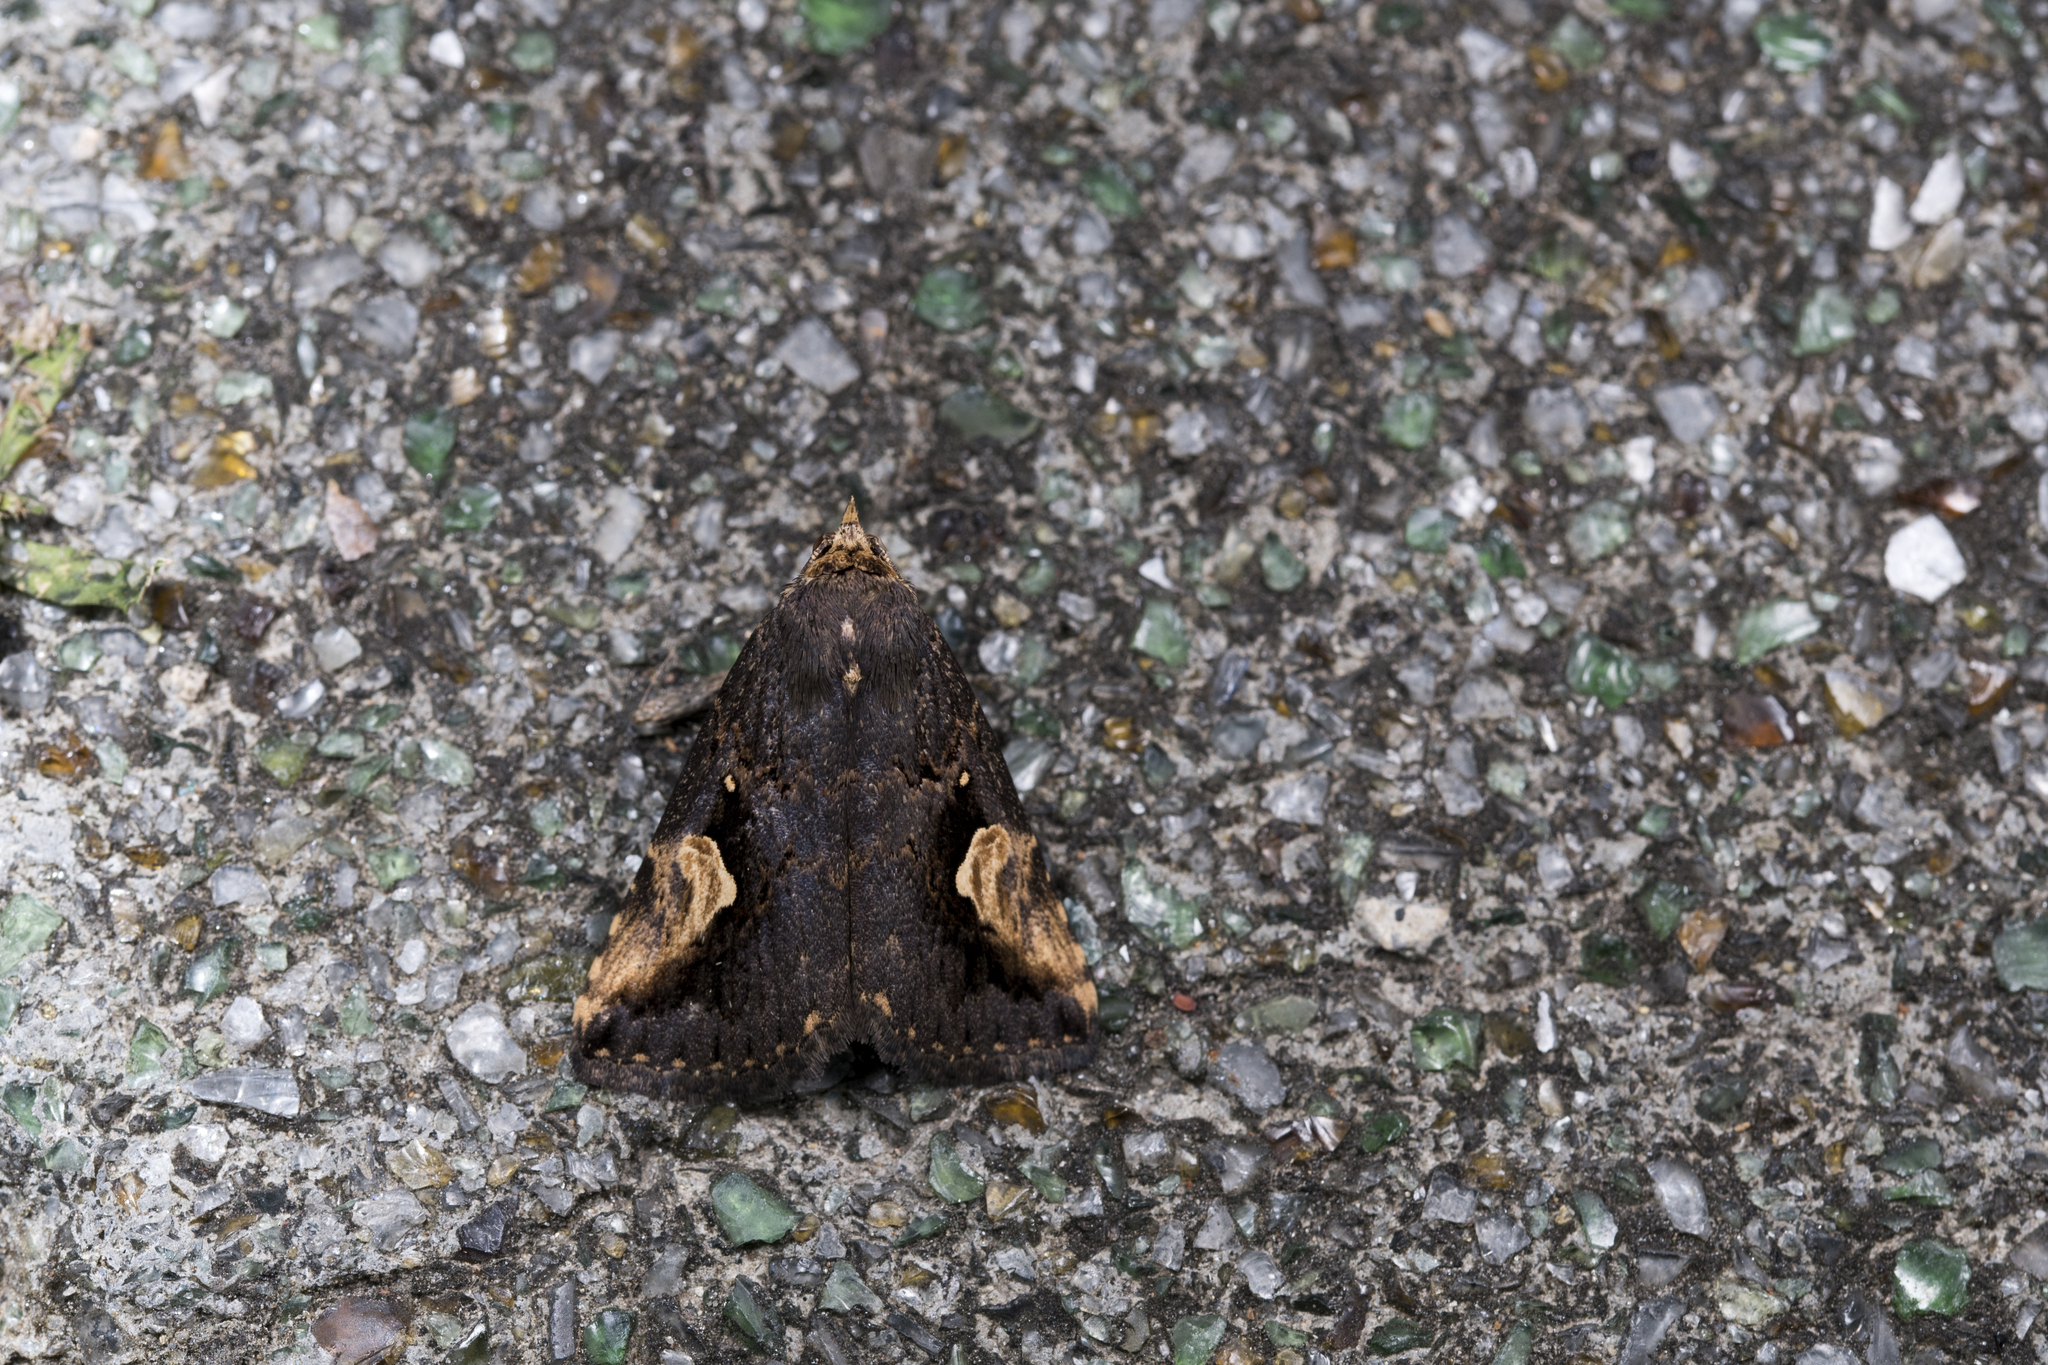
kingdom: Animalia
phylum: Arthropoda
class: Insecta
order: Lepidoptera
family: Erebidae
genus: Pseudosphetta
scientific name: Pseudosphetta moorei
